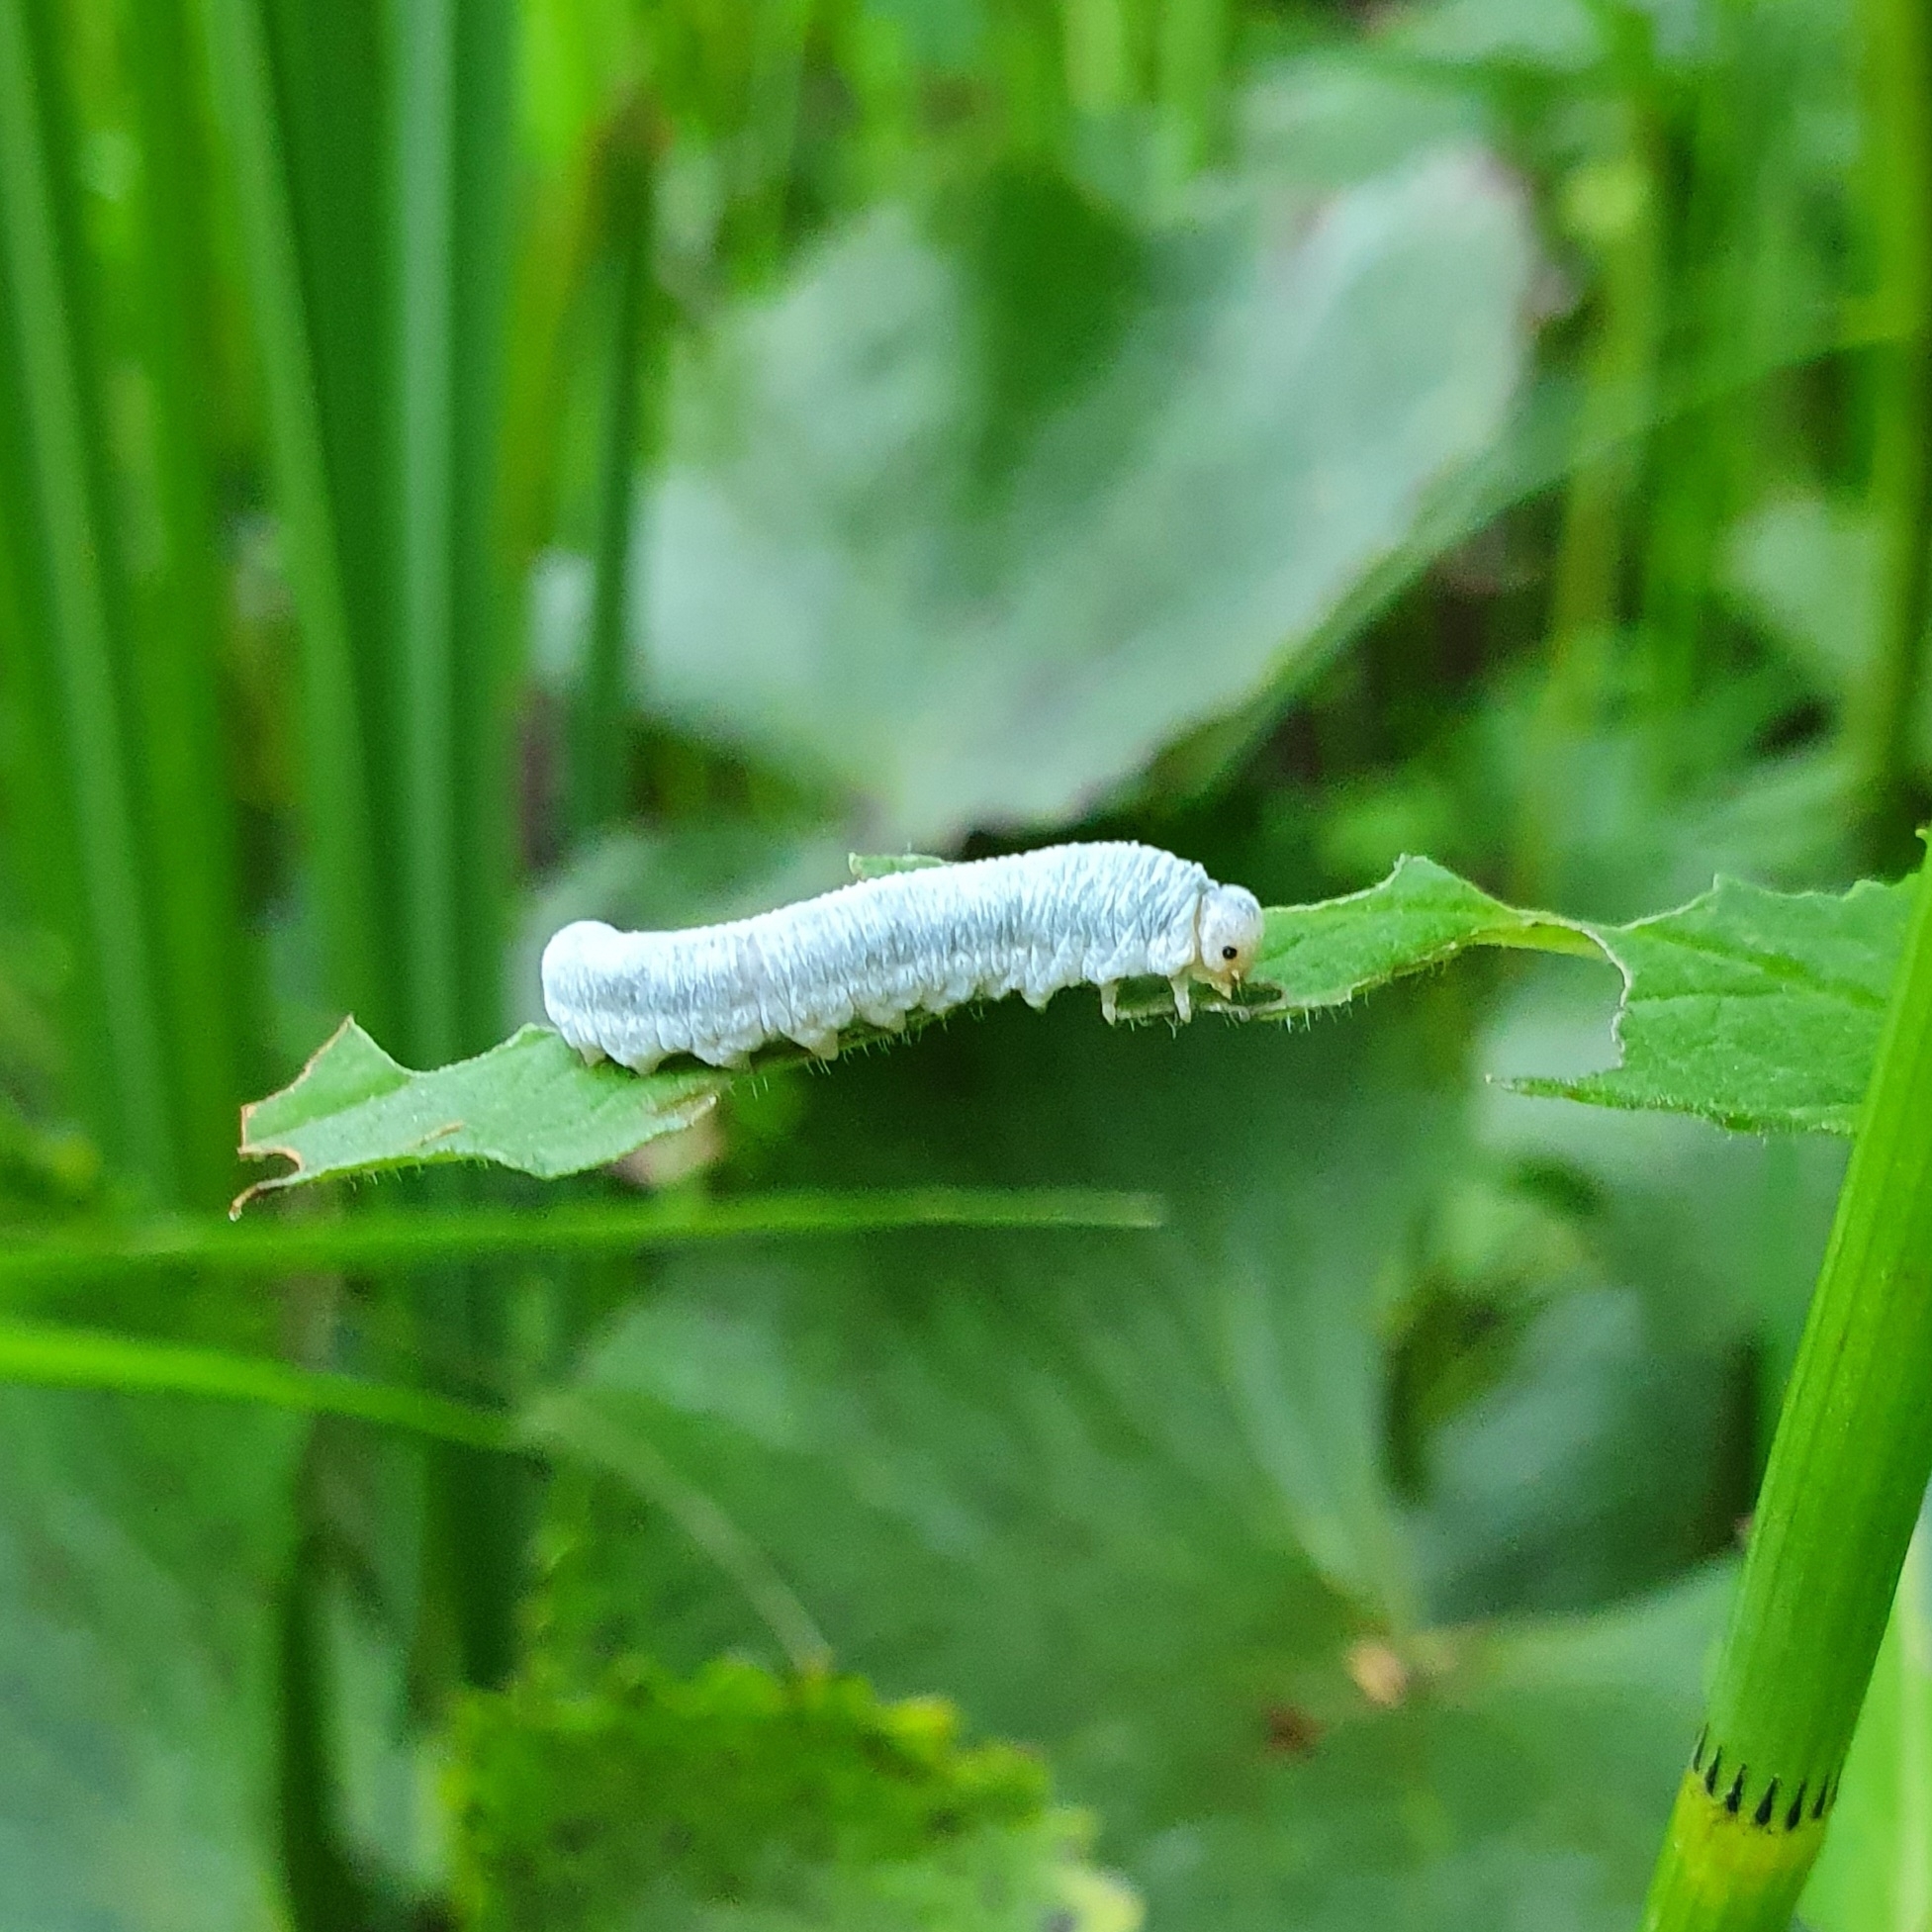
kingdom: Animalia
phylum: Arthropoda
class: Insecta
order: Hymenoptera
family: Tenthredinidae
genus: Monostegia
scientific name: Monostegia abdominalis
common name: Tenthredid wasp
